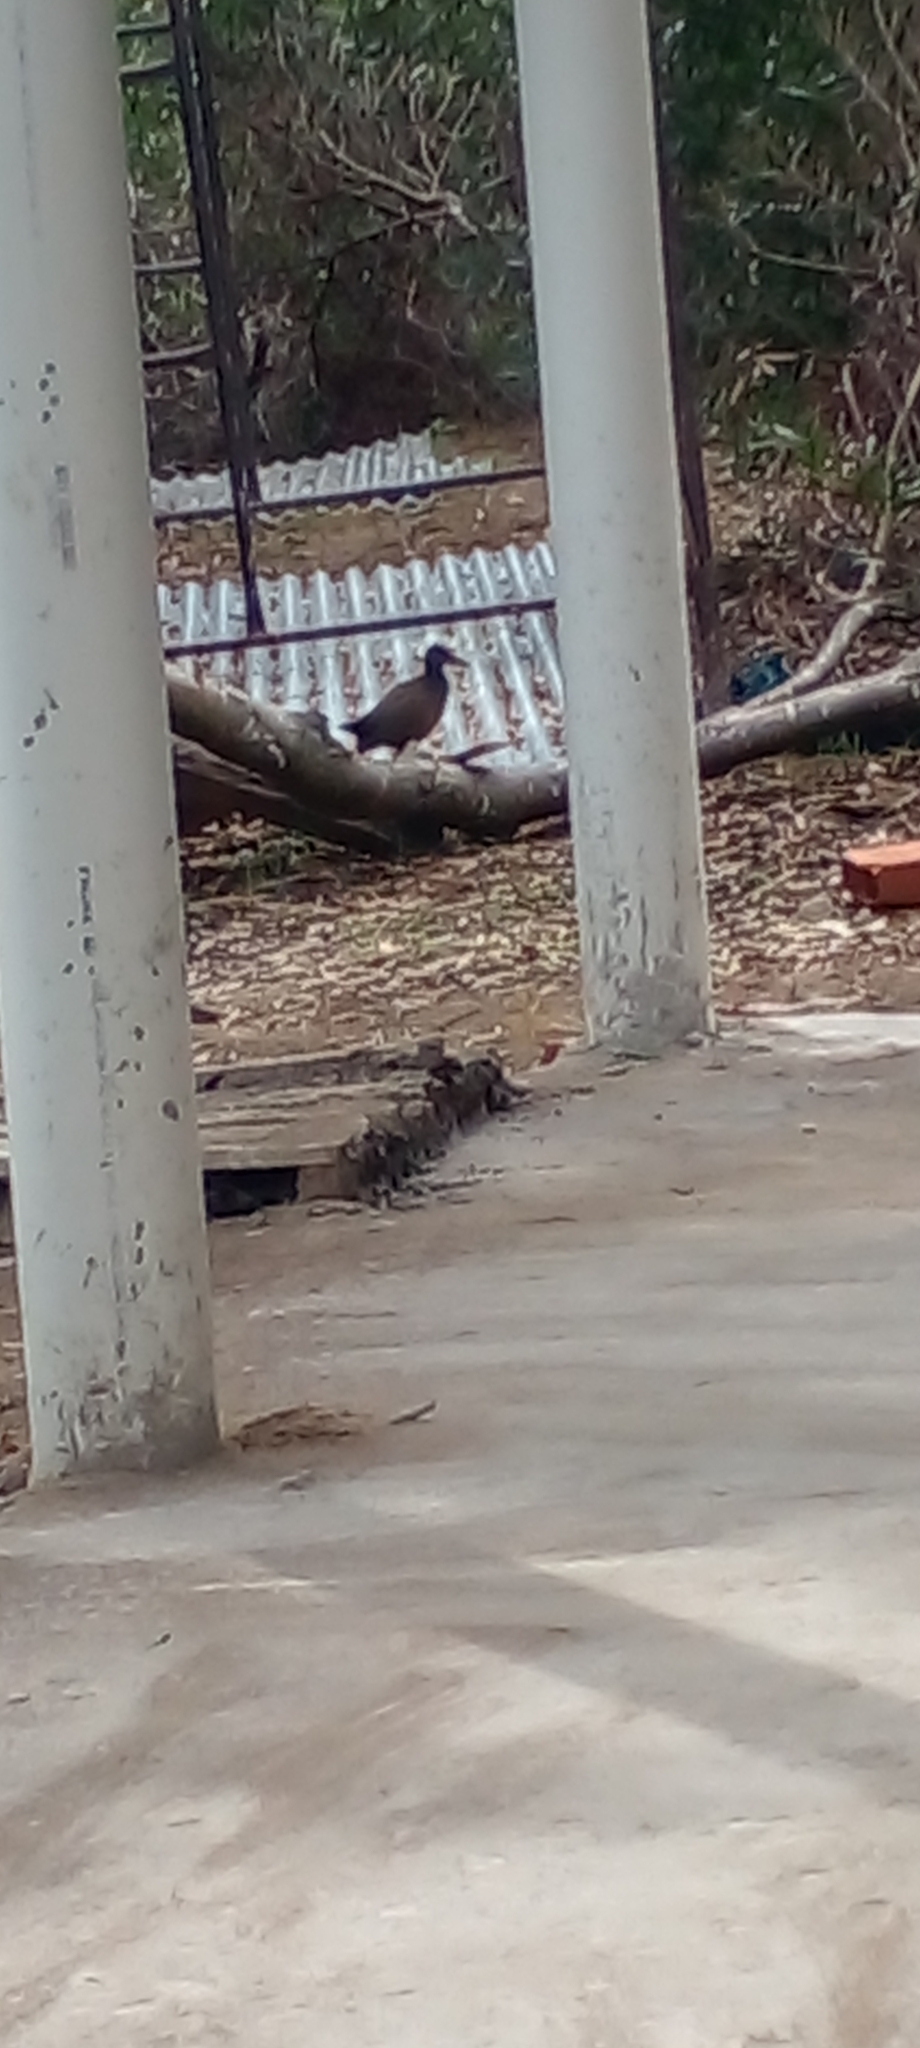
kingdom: Animalia
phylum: Chordata
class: Aves
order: Gruiformes
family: Rallidae
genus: Aramides
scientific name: Aramides cajanea
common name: Gray-necked wood-rail
